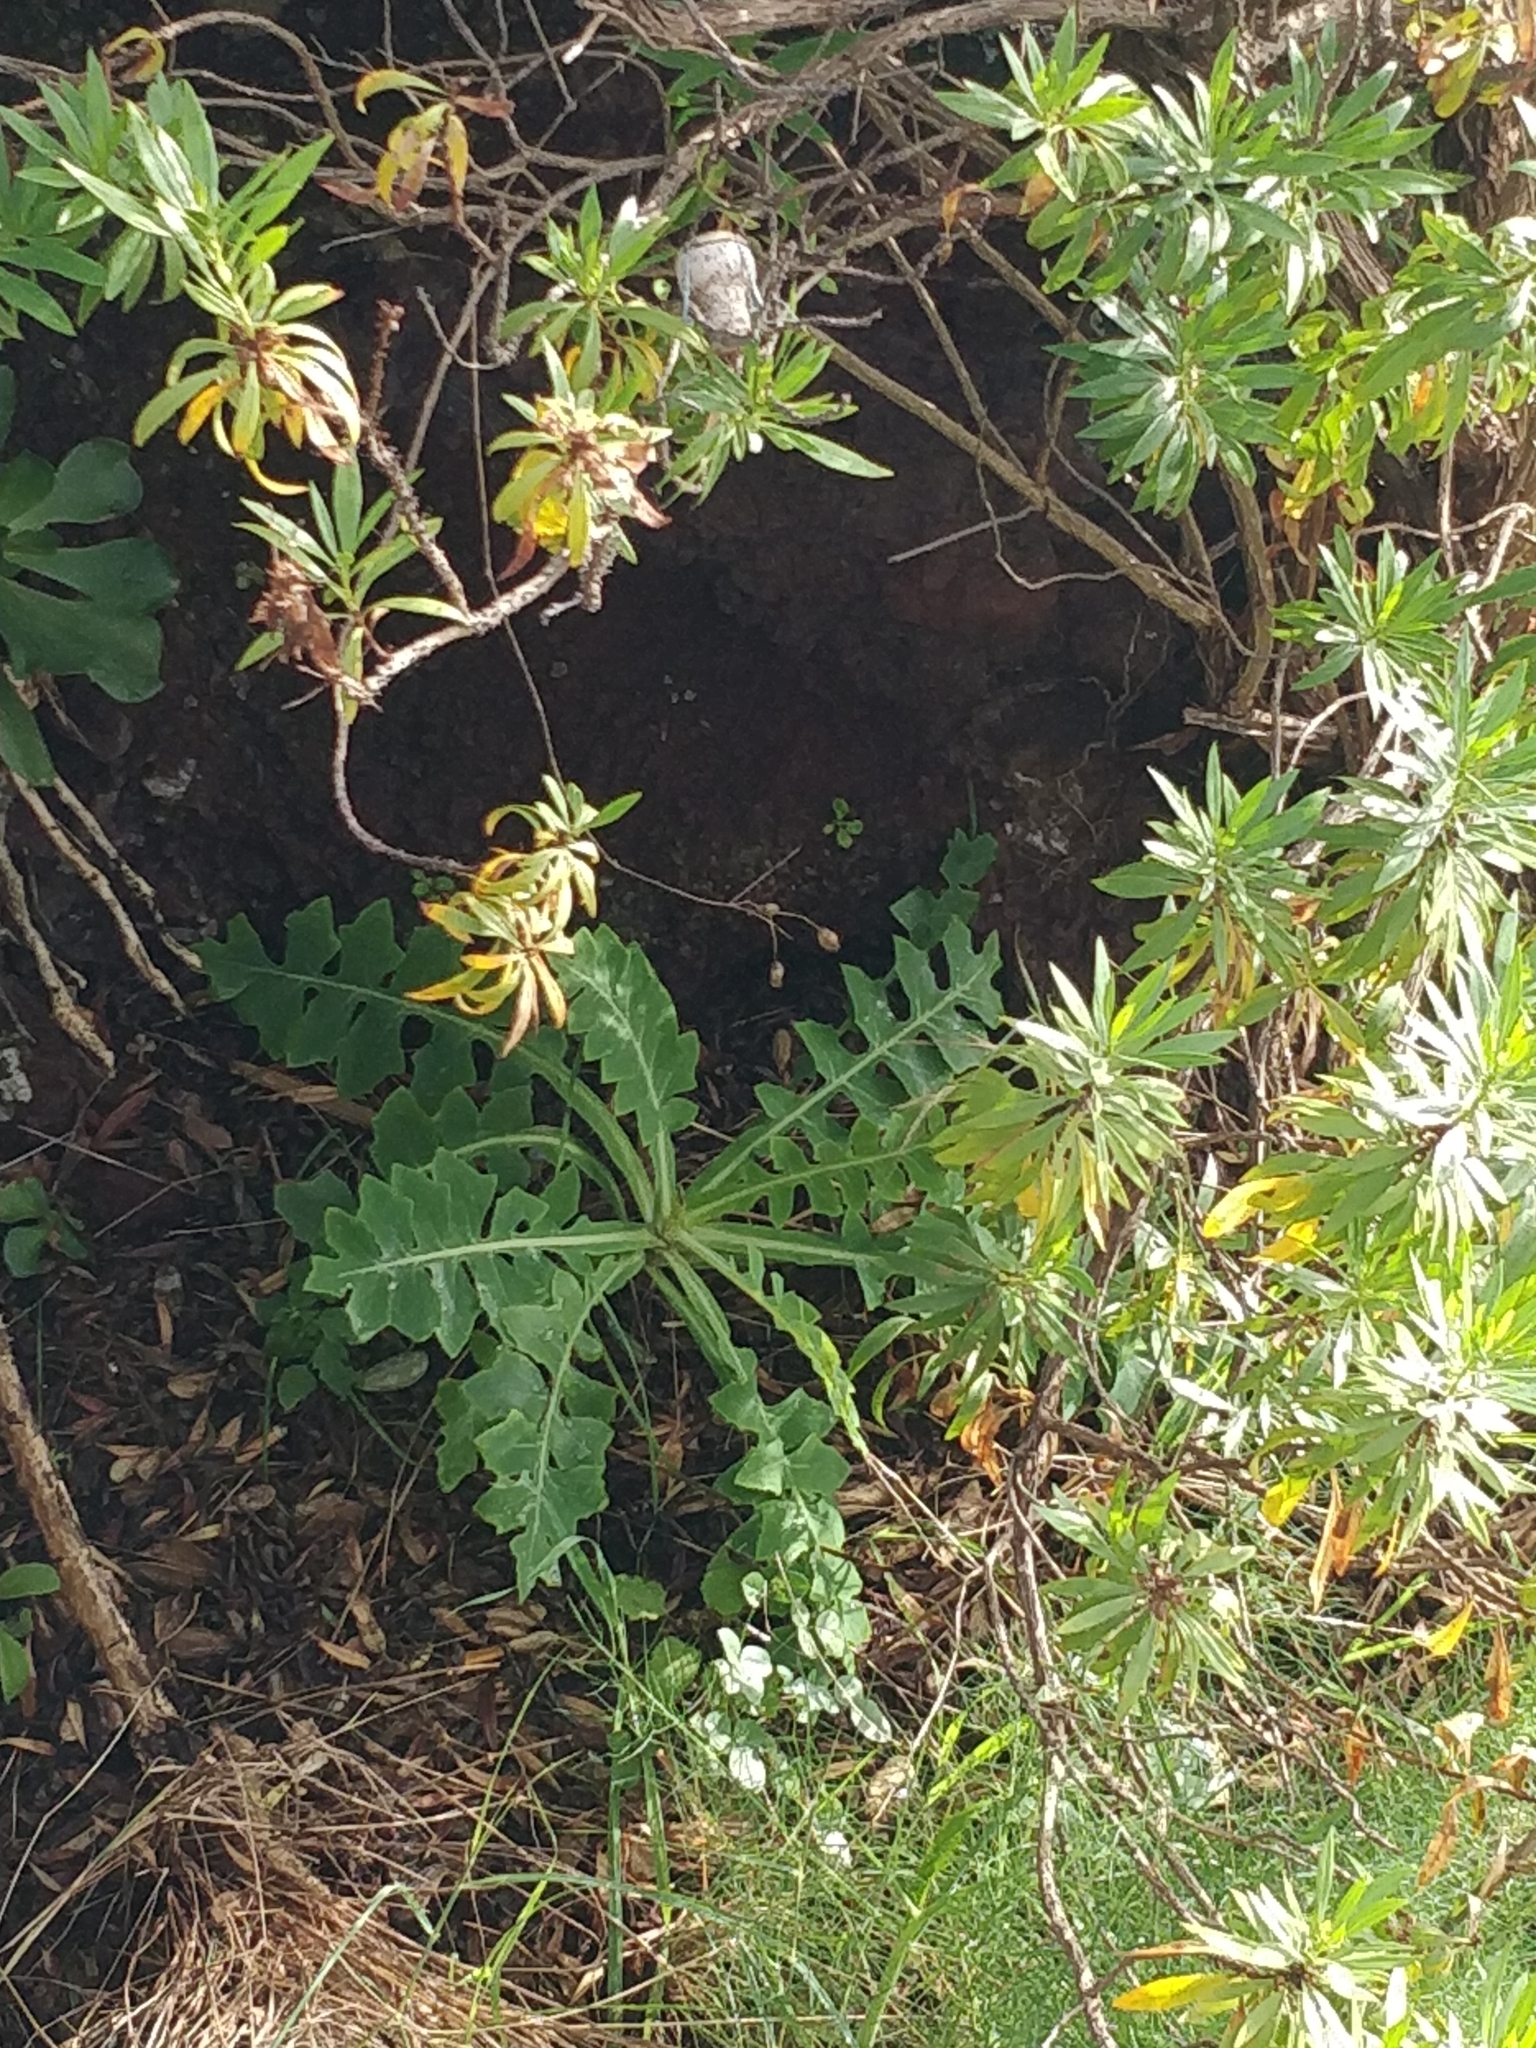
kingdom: Plantae
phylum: Tracheophyta
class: Magnoliopsida
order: Asterales
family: Asteraceae
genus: Sonchus
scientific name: Sonchus ustulatus
